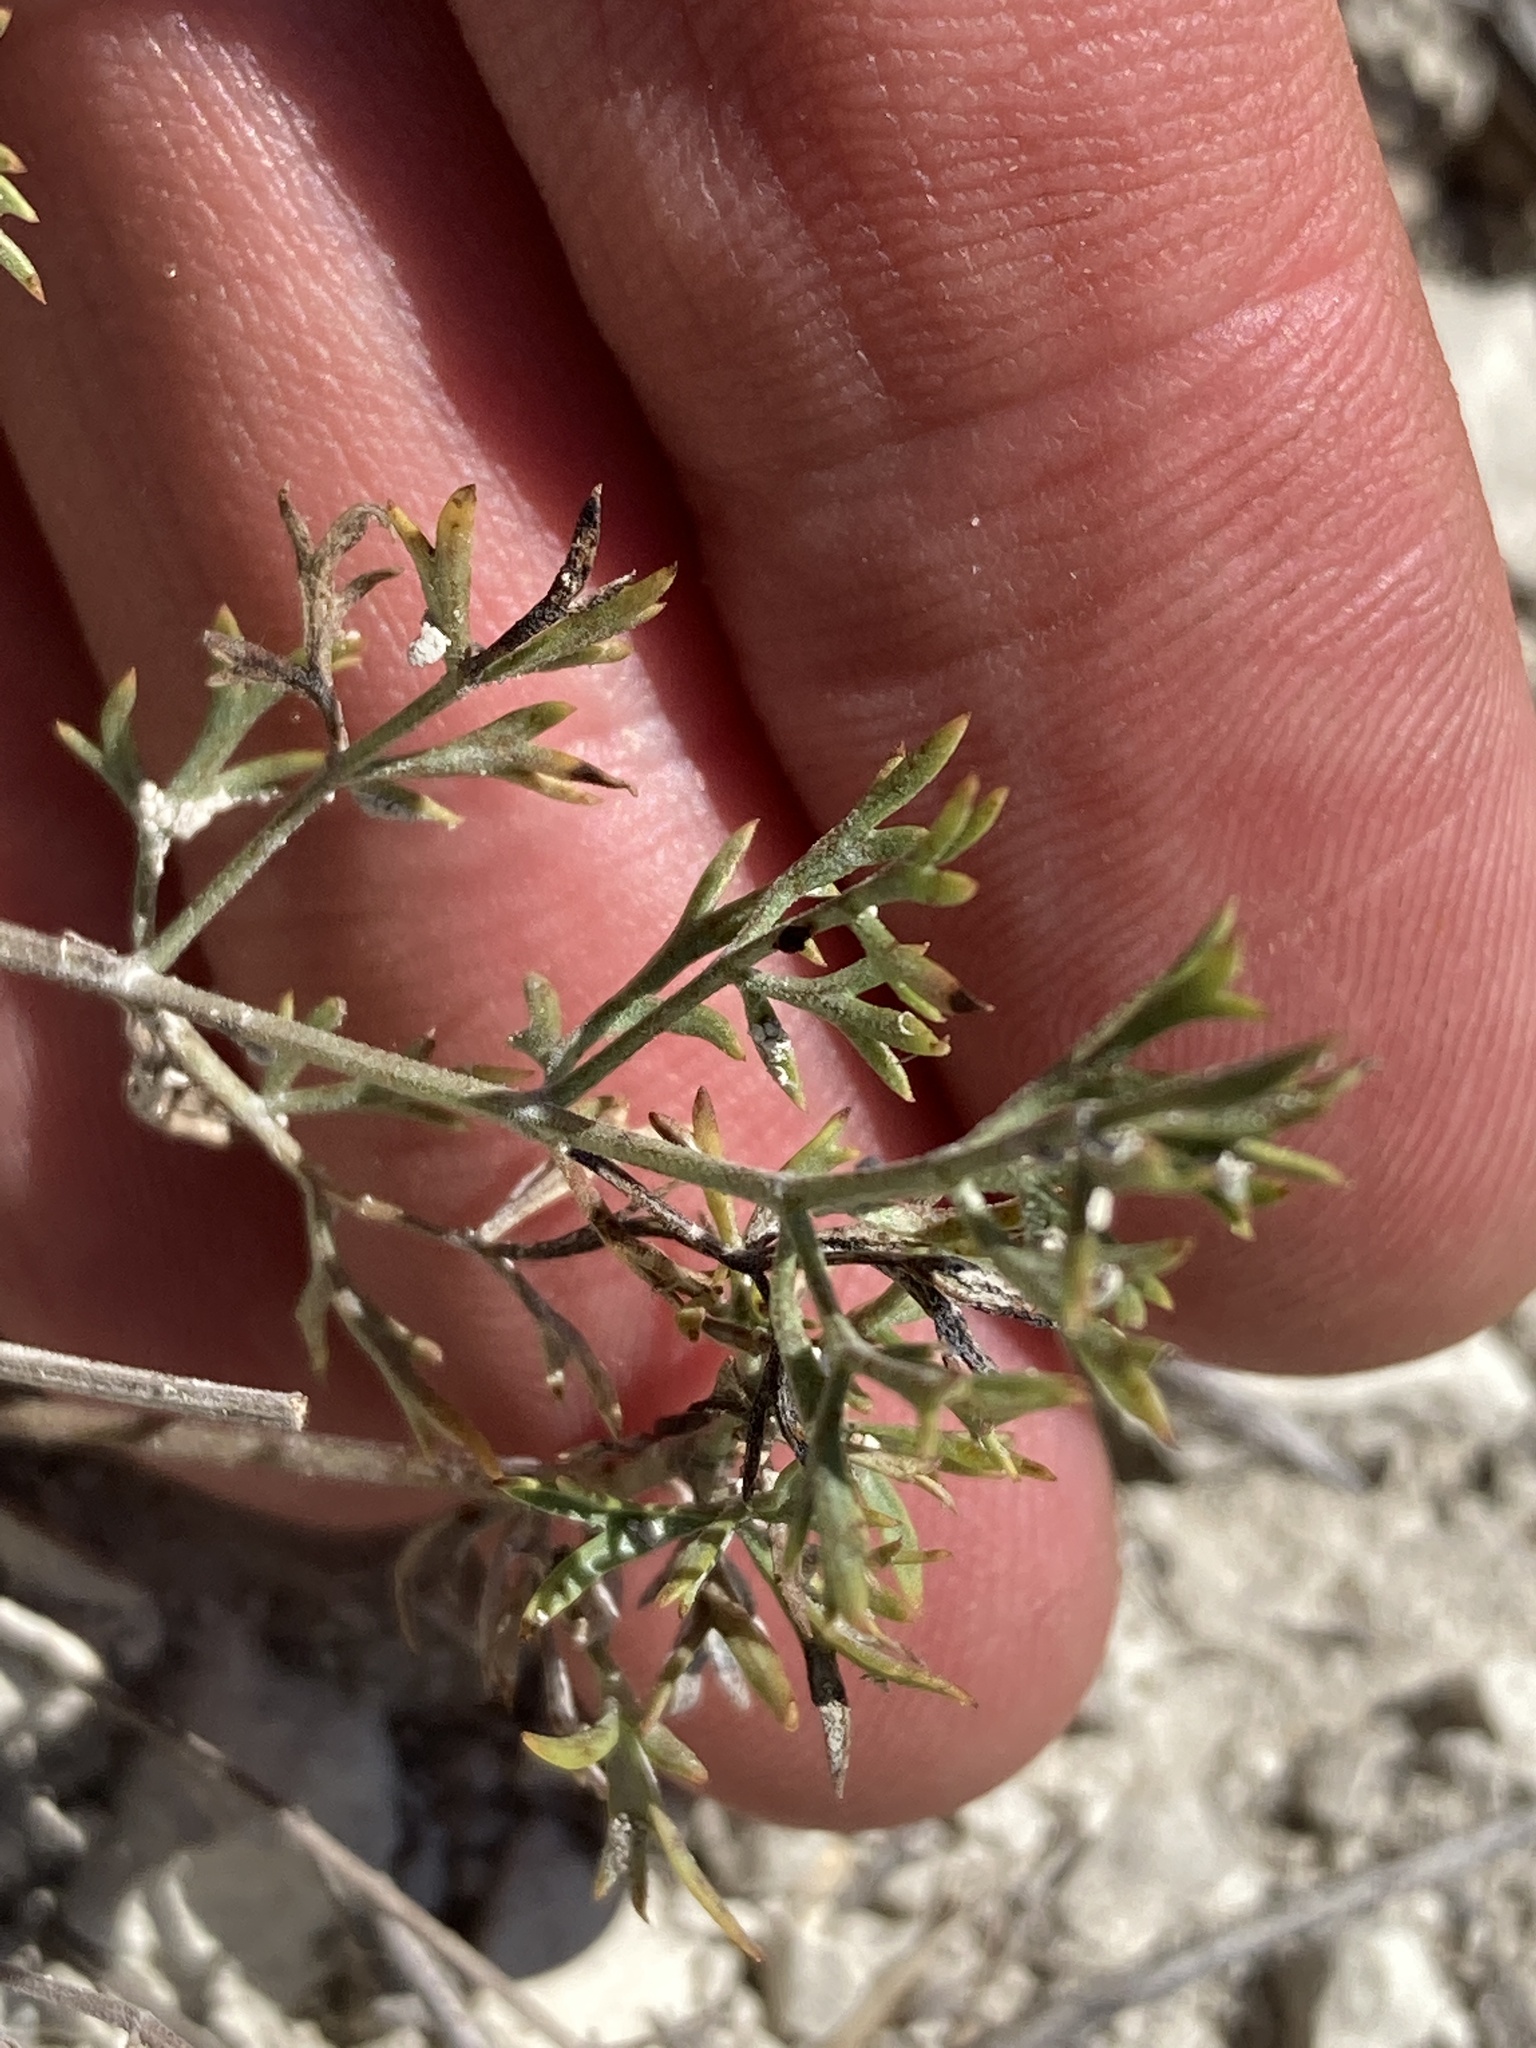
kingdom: Plantae
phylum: Tracheophyta
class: Magnoliopsida
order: Apiales
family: Apiaceae
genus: Pimpinella
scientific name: Pimpinella tragium
